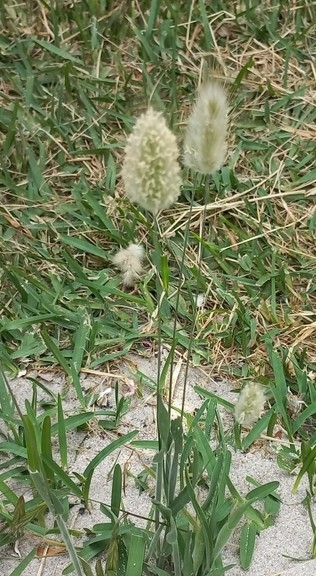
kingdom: Plantae
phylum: Tracheophyta
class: Liliopsida
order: Poales
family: Poaceae
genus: Lagurus
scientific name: Lagurus ovatus
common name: Hare's-tail
